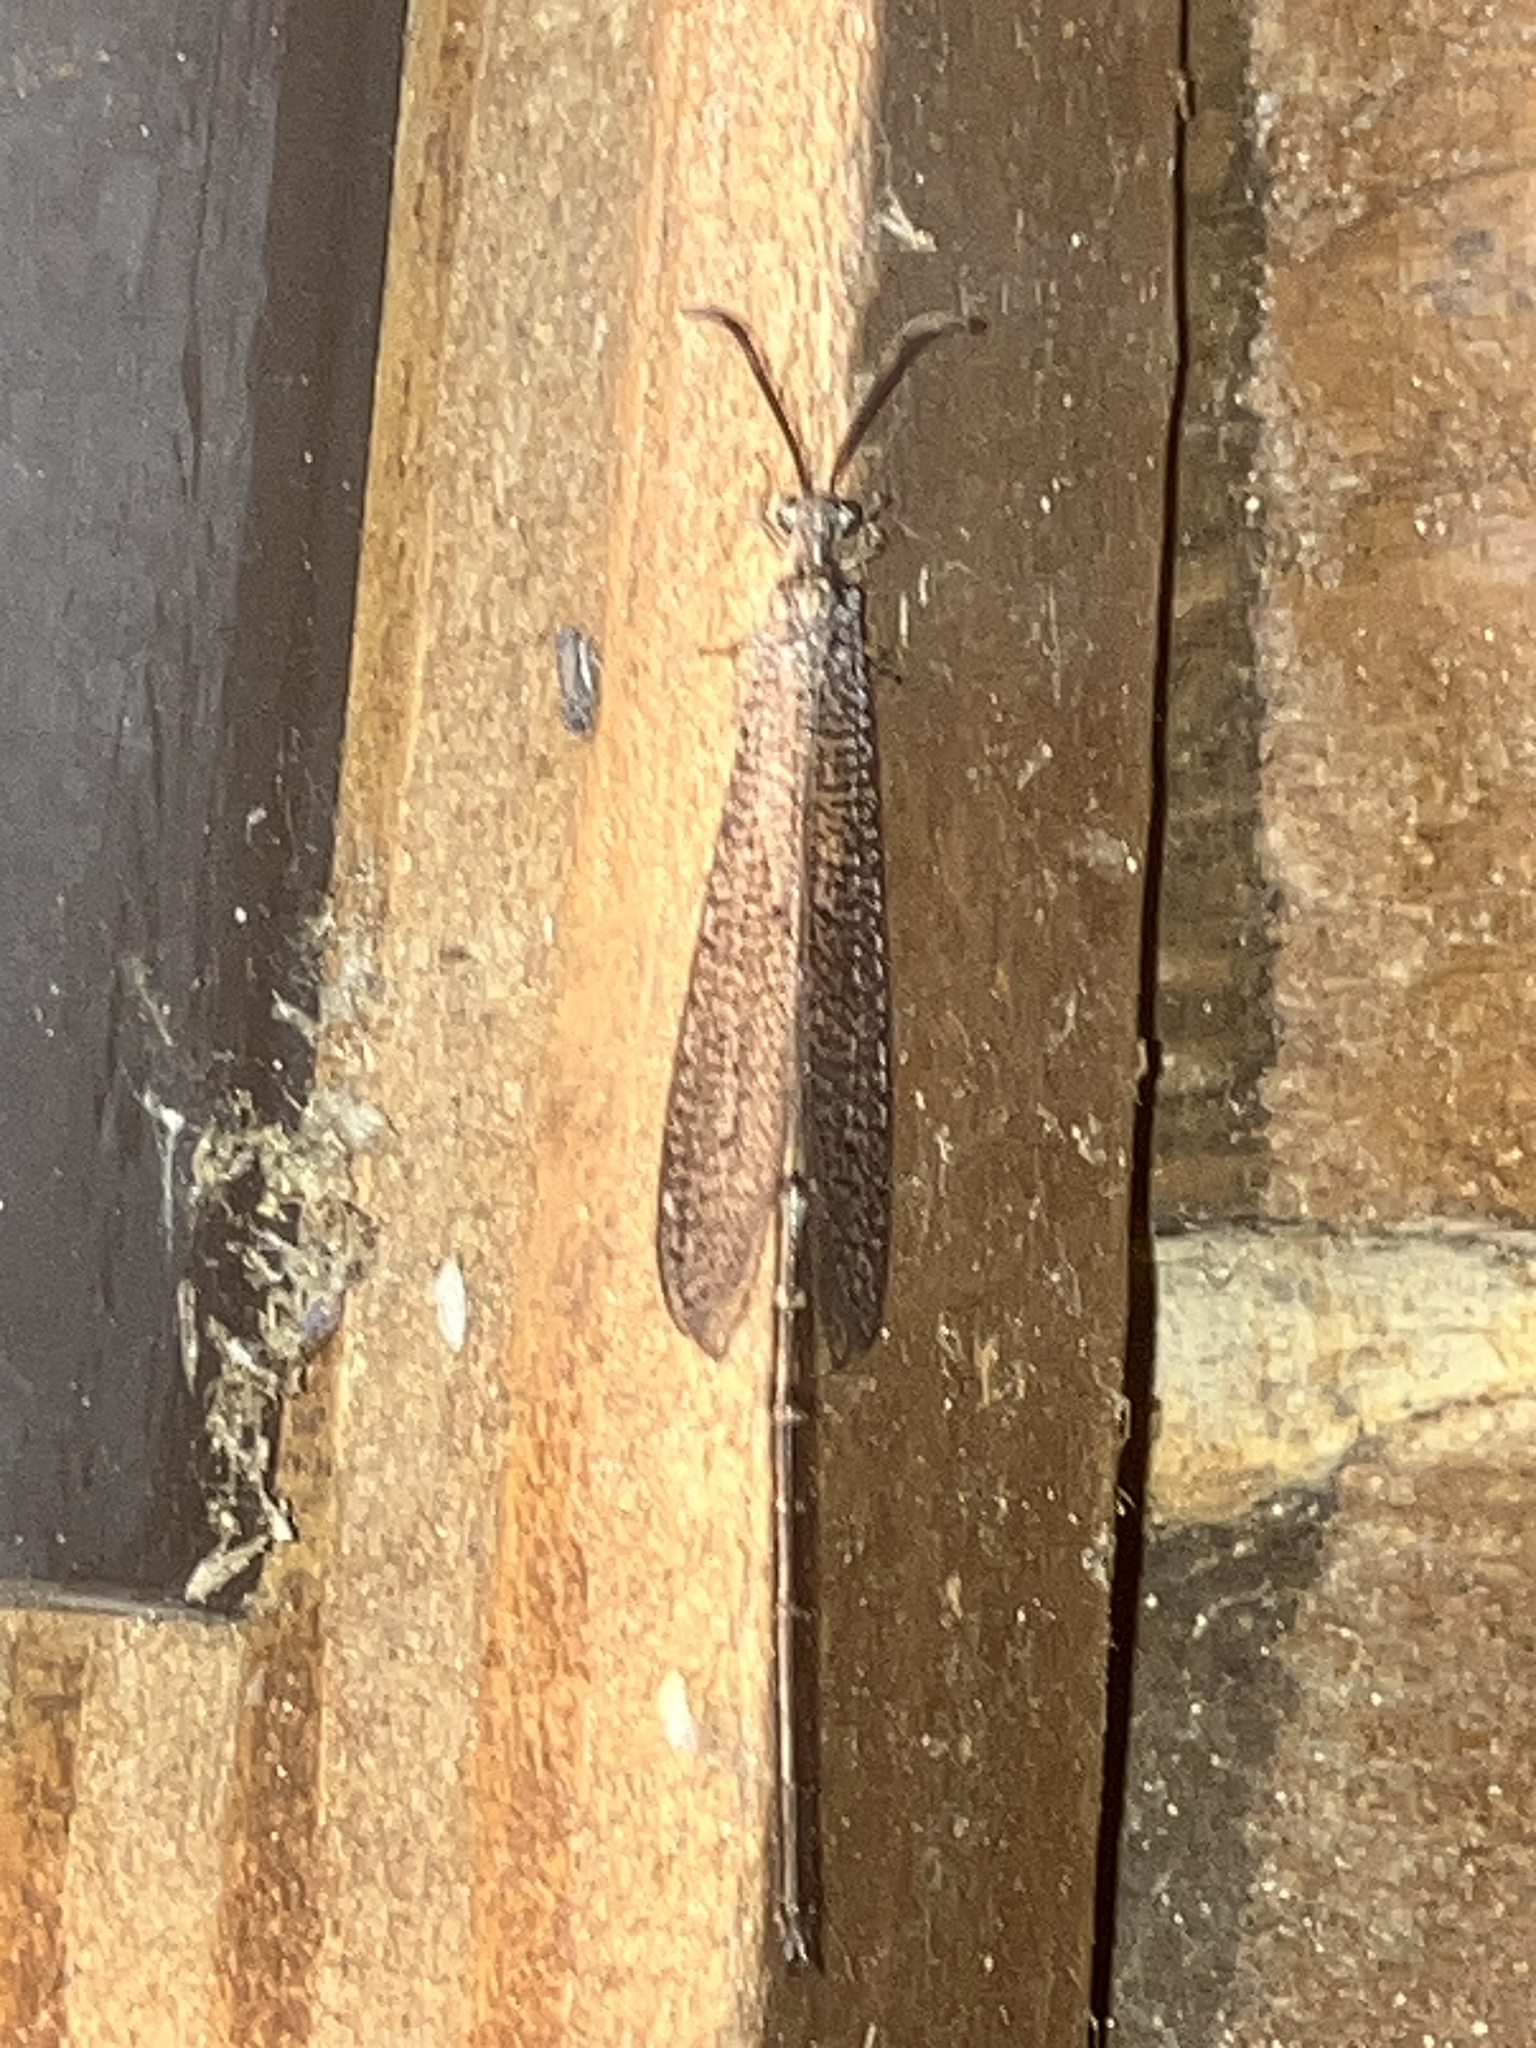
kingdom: Animalia
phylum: Arthropoda
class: Insecta
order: Neuroptera
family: Myrmeleontidae
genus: Brachynemurus
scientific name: Brachynemurus longicaudus
